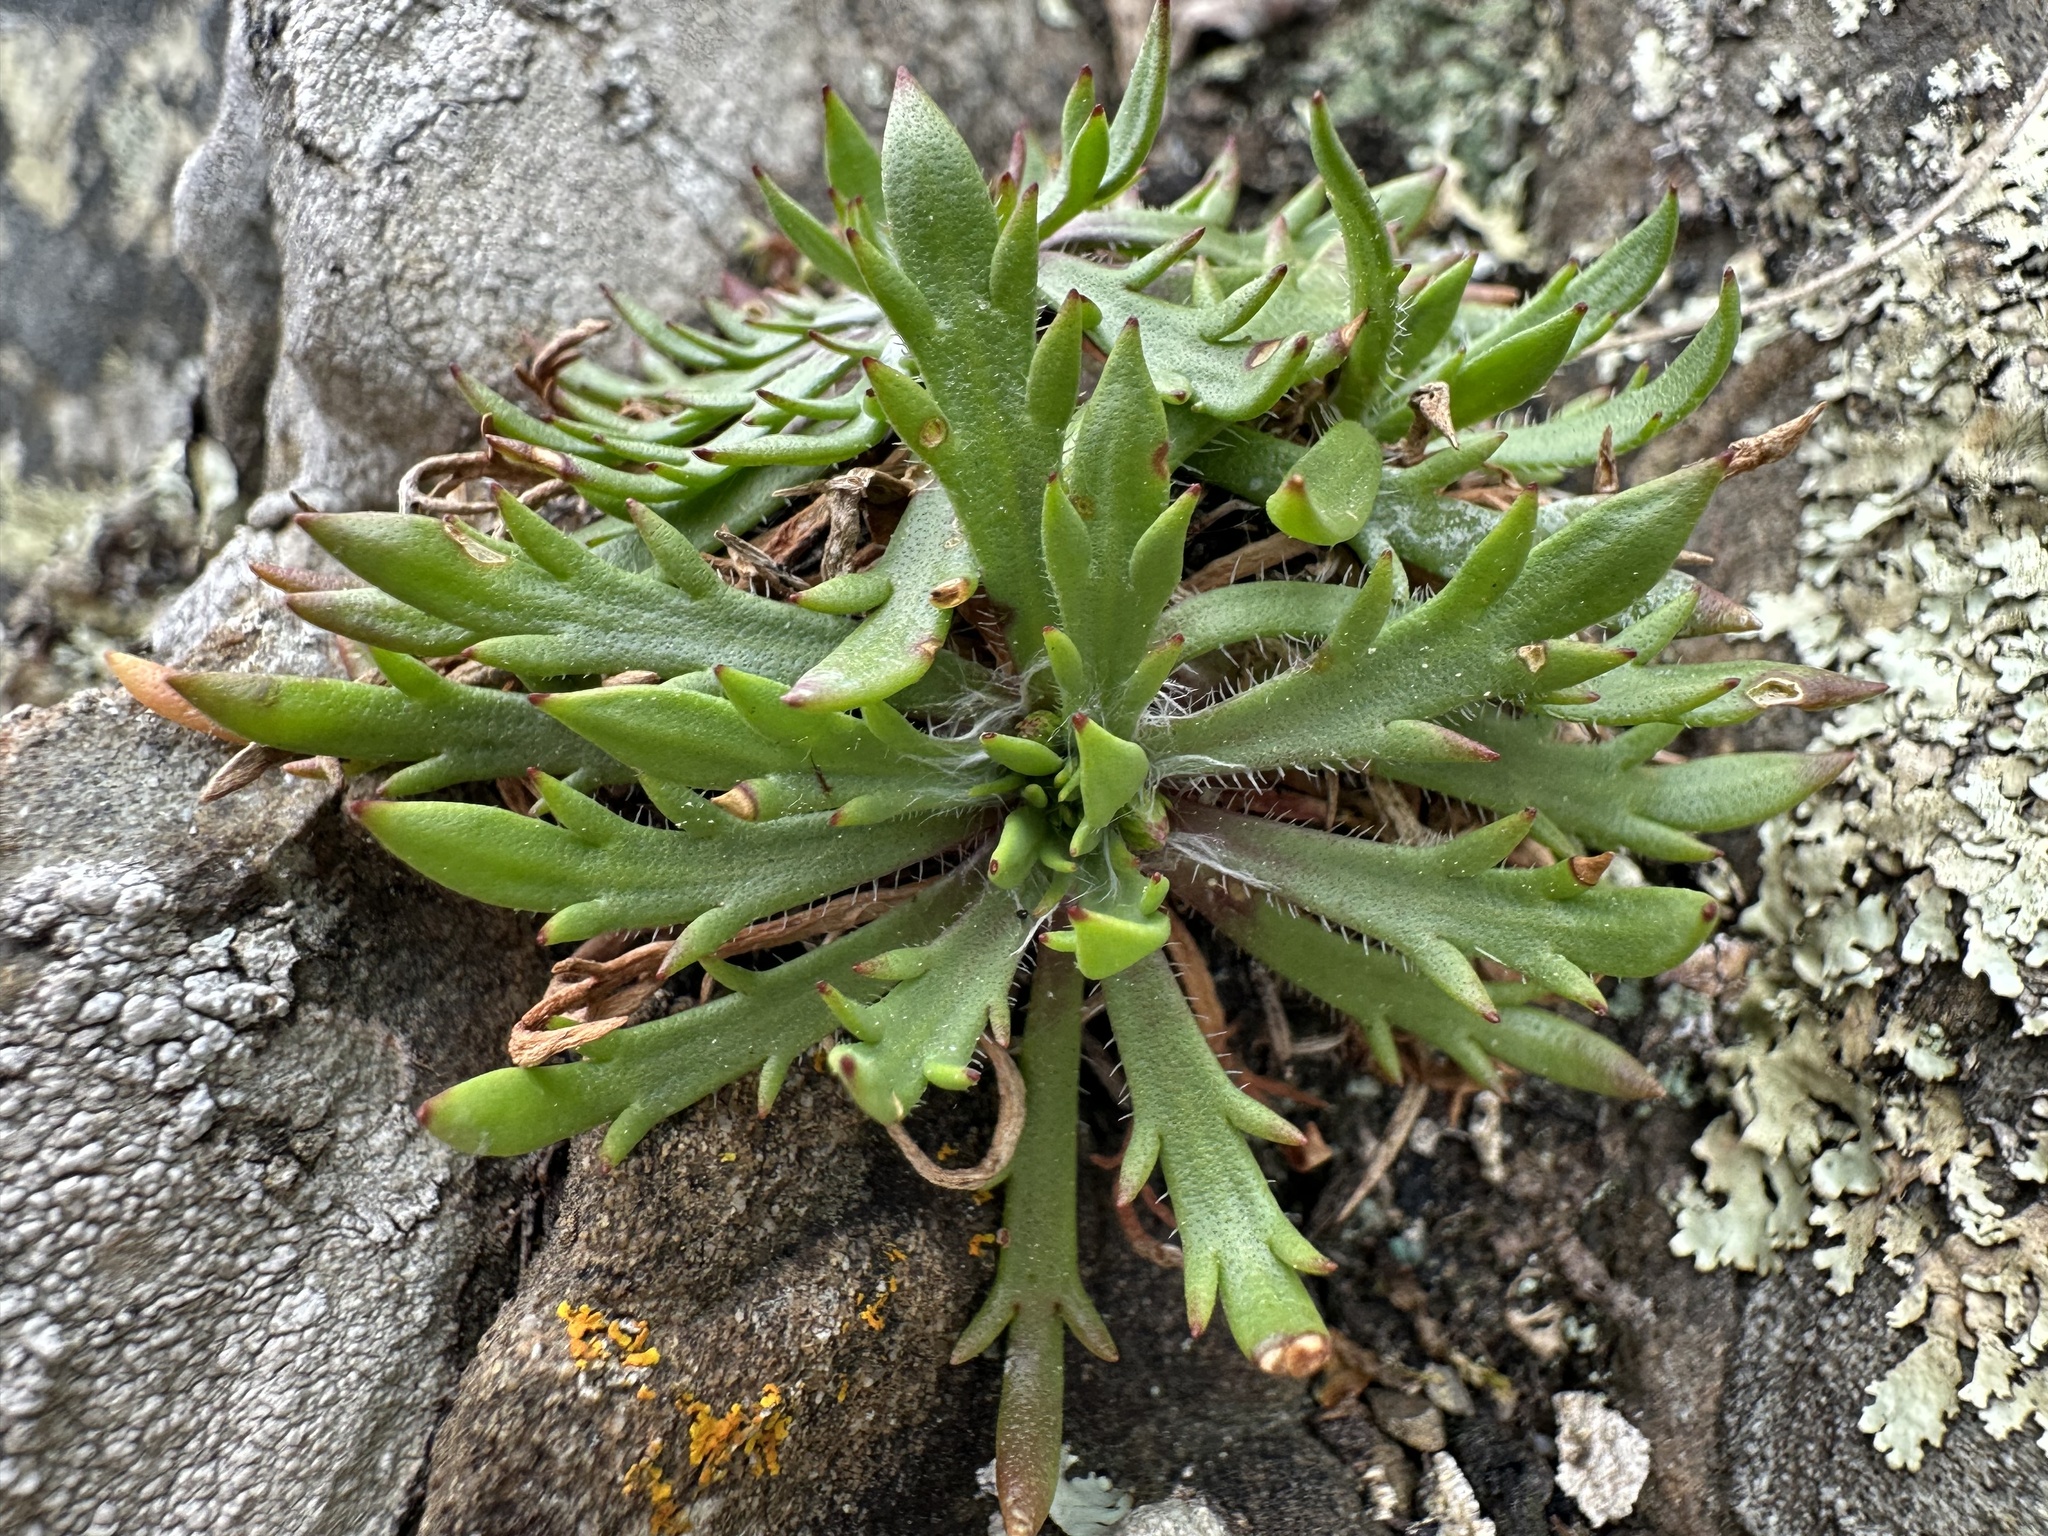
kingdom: Plantae
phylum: Tracheophyta
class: Magnoliopsida
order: Lamiales
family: Plantaginaceae
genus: Plantago
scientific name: Plantago coronopus
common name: Buck's-horn plantain
